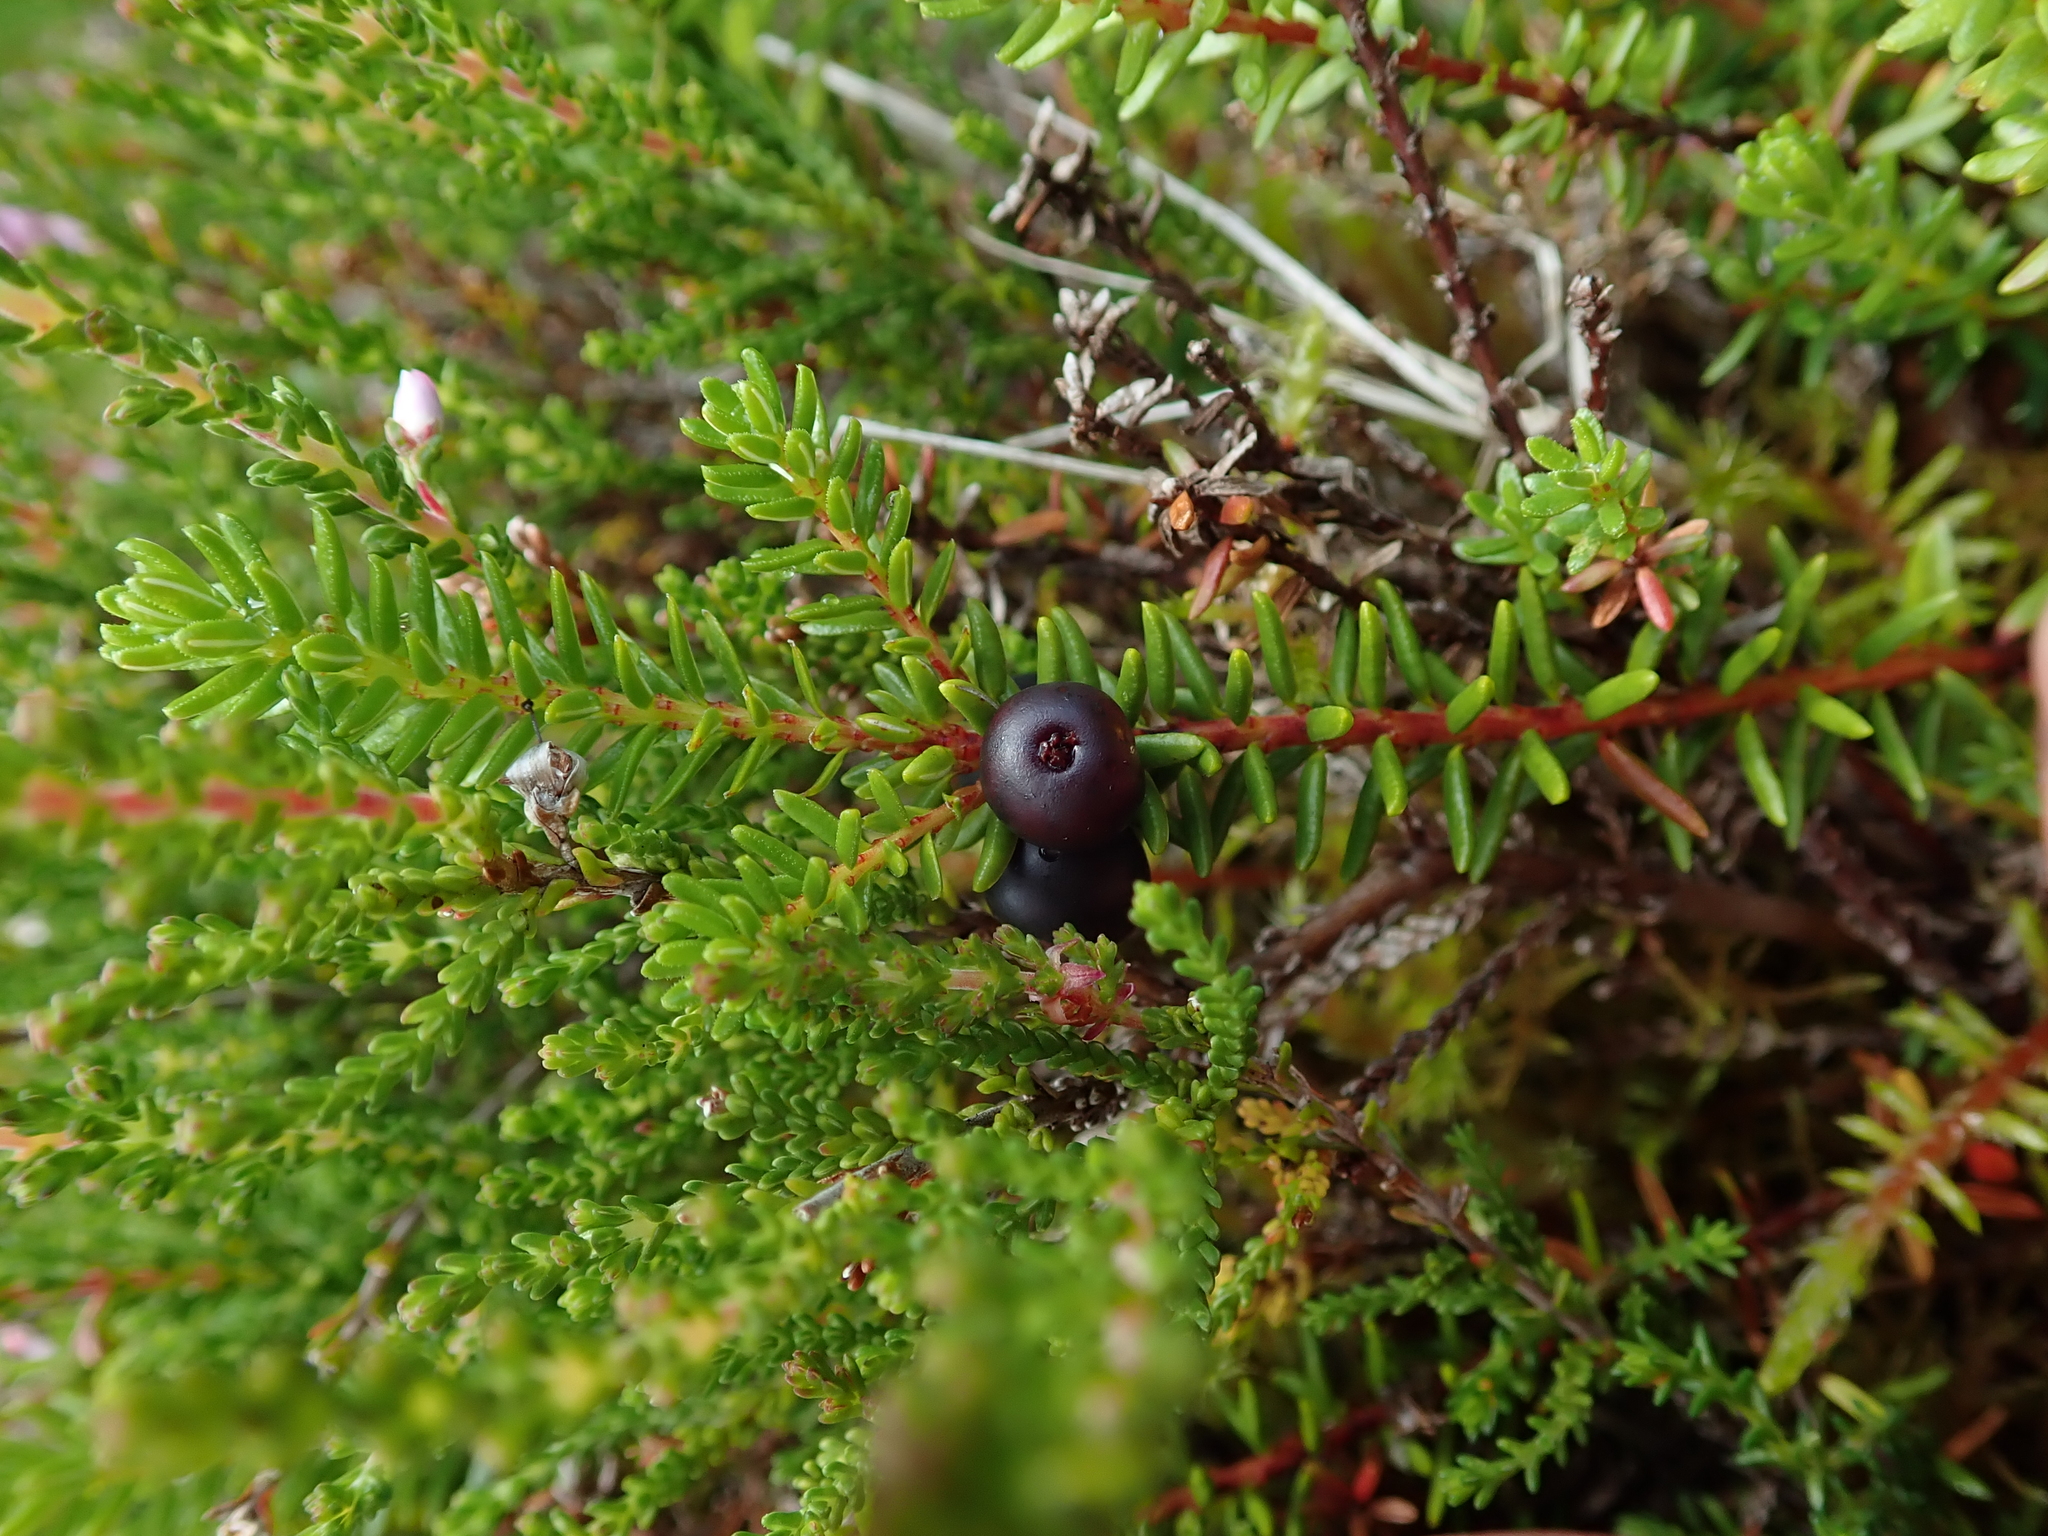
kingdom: Plantae
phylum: Tracheophyta
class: Magnoliopsida
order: Ericales
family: Ericaceae
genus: Empetrum
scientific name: Empetrum nigrum
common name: Black crowberry
